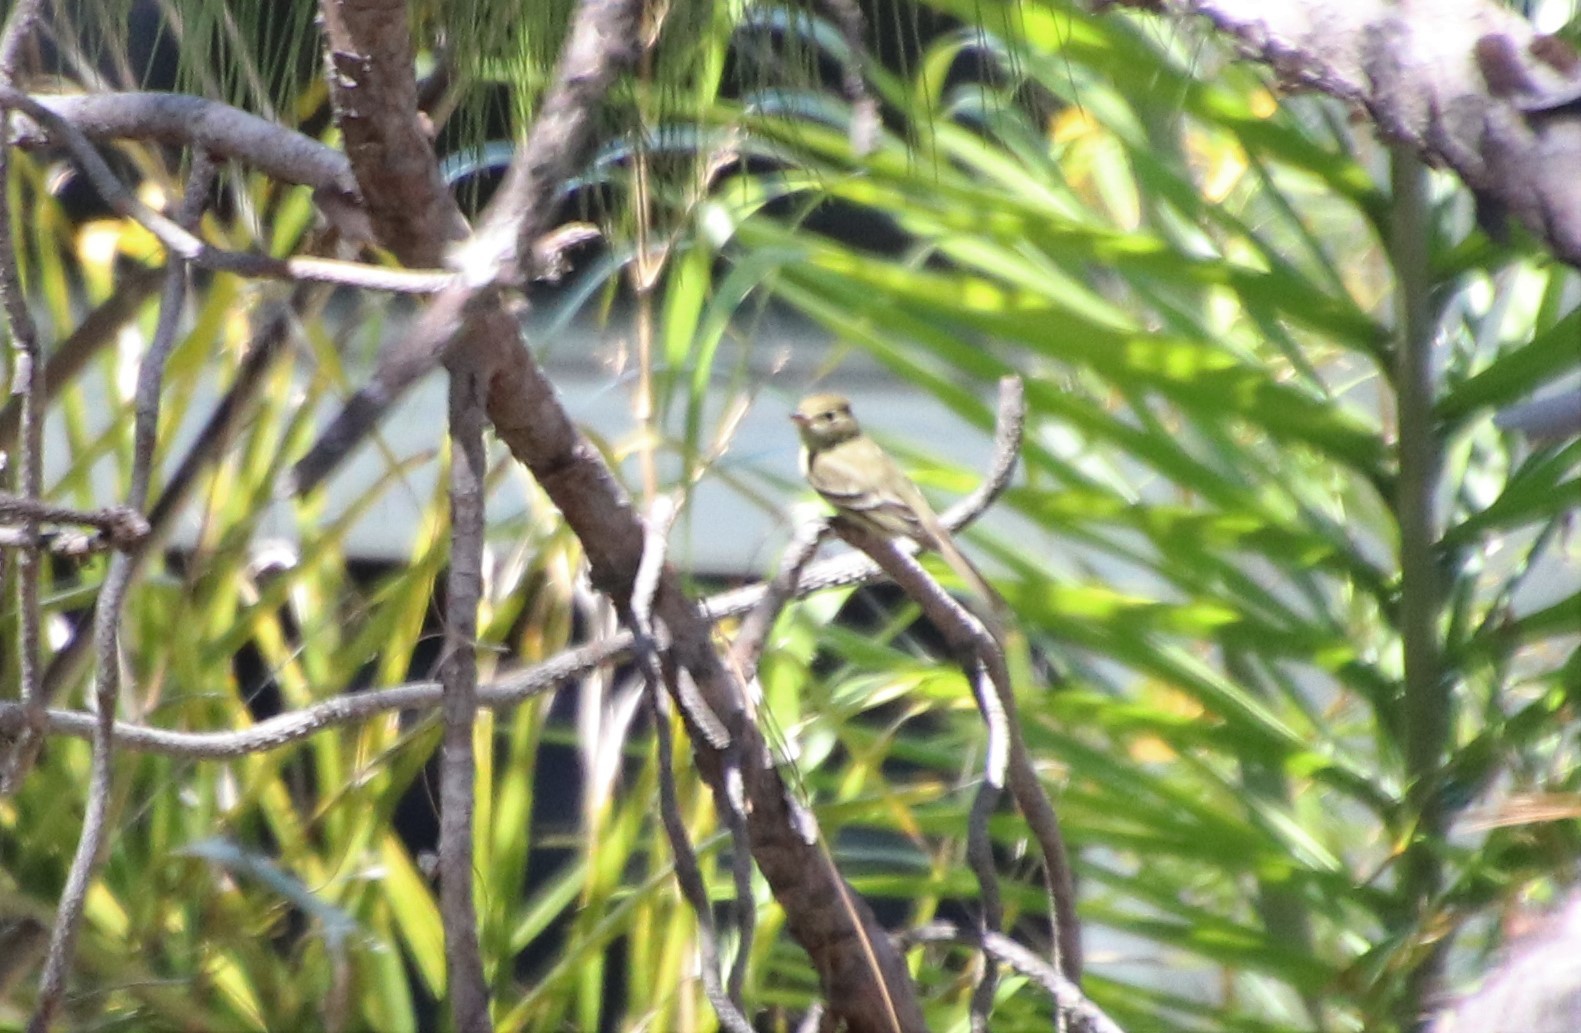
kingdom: Animalia
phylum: Chordata
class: Aves
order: Passeriformes
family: Tyrannidae
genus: Empidonax
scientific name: Empidonax difficilis
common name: Pacific-slope flycatcher
